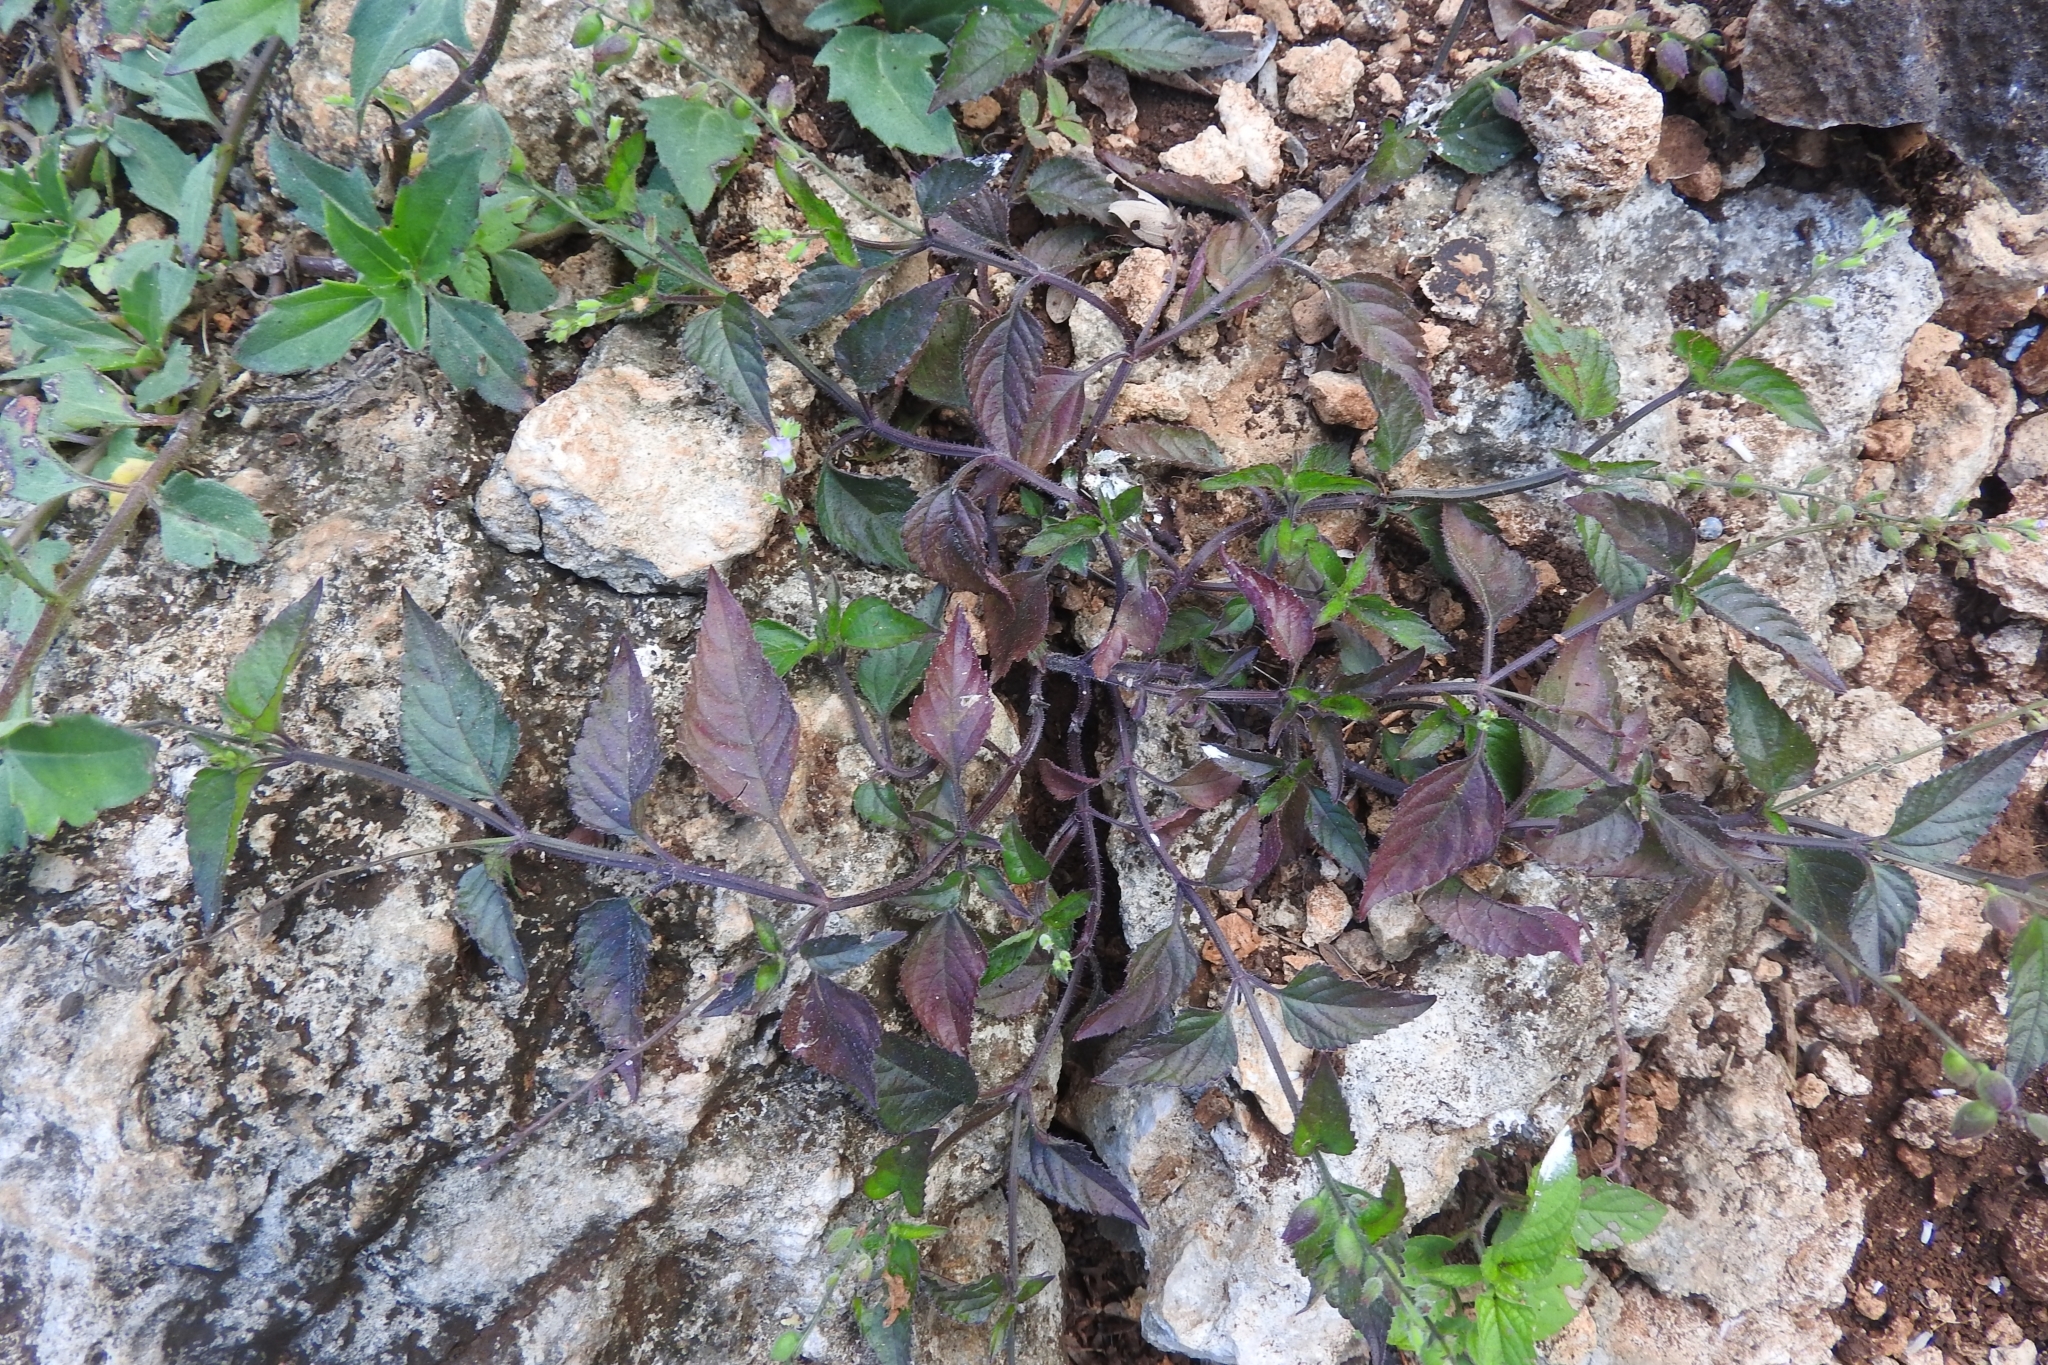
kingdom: Plantae
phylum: Tracheophyta
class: Magnoliopsida
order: Caryophyllales
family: Amaranthaceae
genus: Achyranthes
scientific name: Achyranthes aspera
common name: Devil's horsewhip
